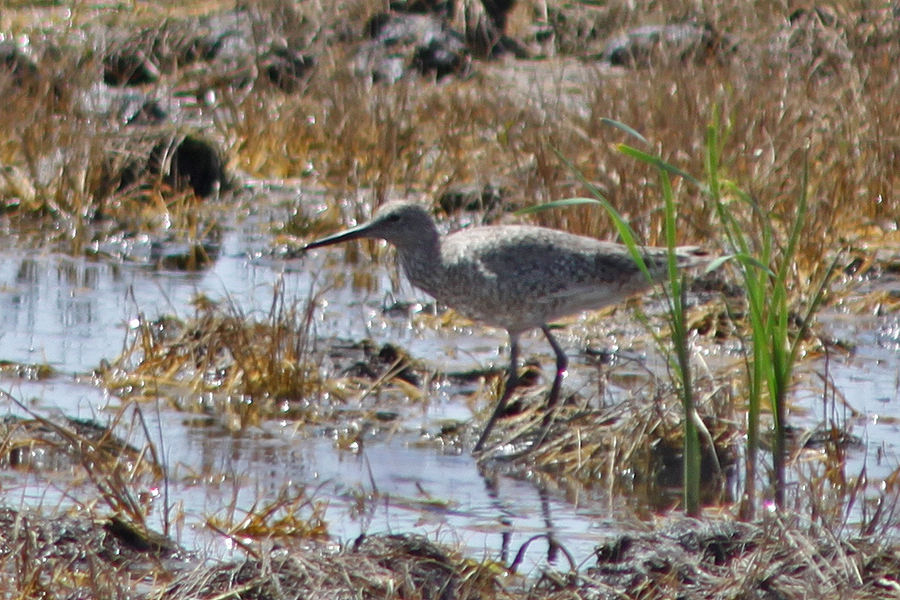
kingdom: Animalia
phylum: Chordata
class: Aves
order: Charadriiformes
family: Scolopacidae
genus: Tringa
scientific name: Tringa semipalmata
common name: Willet
